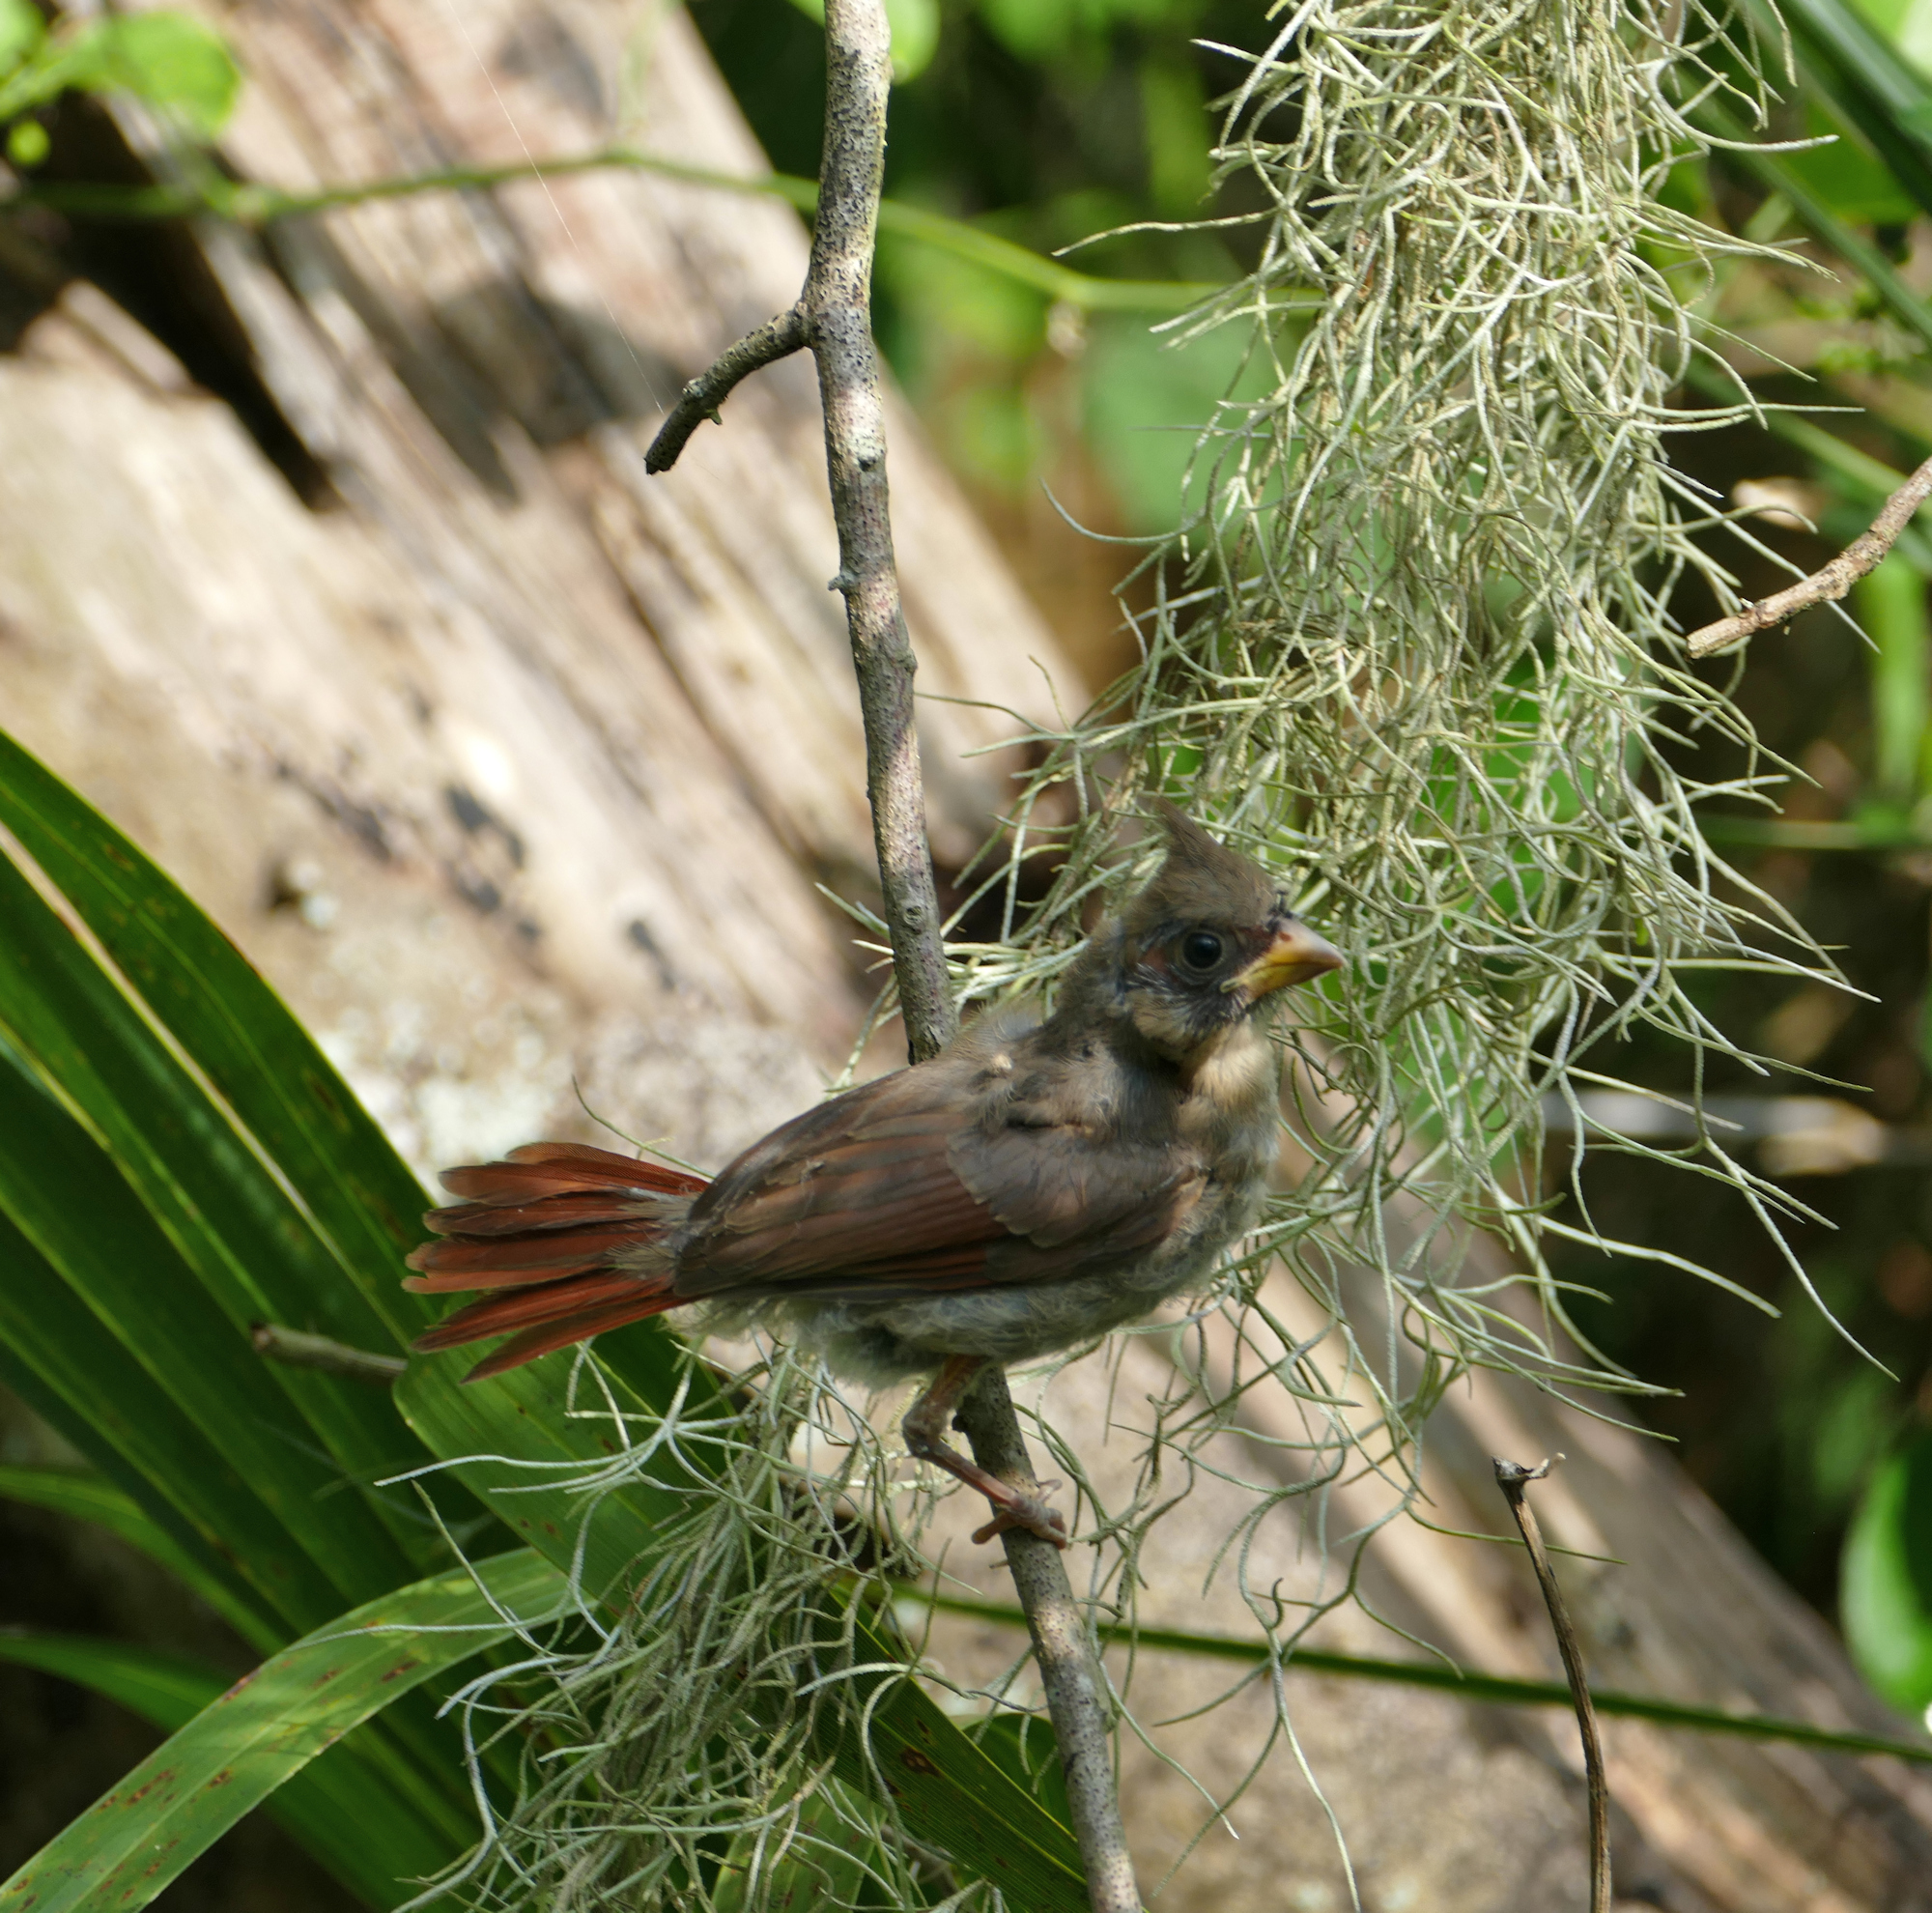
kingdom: Animalia
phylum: Chordata
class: Aves
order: Passeriformes
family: Cardinalidae
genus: Cardinalis
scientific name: Cardinalis cardinalis
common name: Northern cardinal
